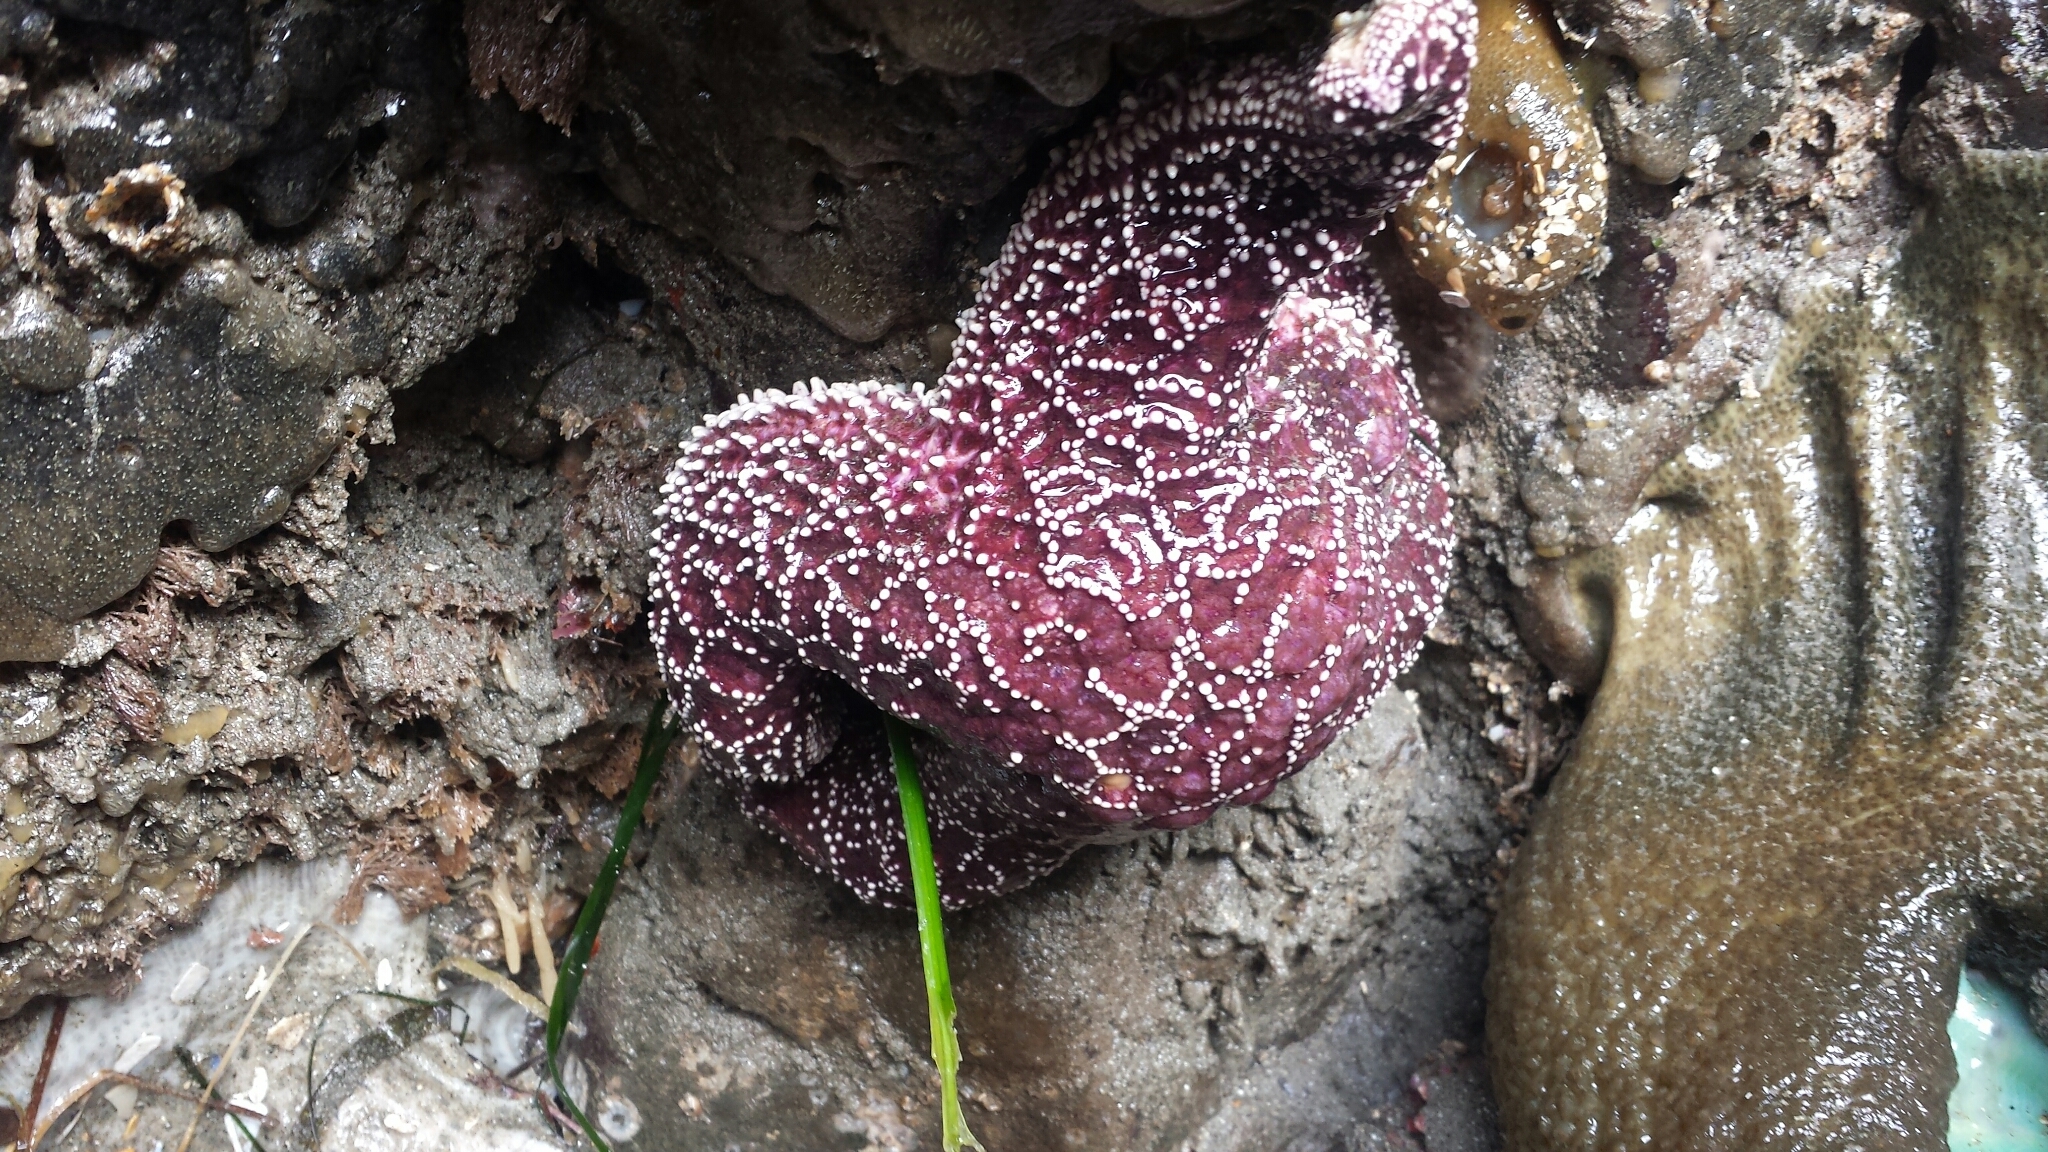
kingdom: Animalia
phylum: Echinodermata
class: Asteroidea
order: Forcipulatida
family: Asteriidae
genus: Pisaster
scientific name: Pisaster ochraceus
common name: Ochre stars
